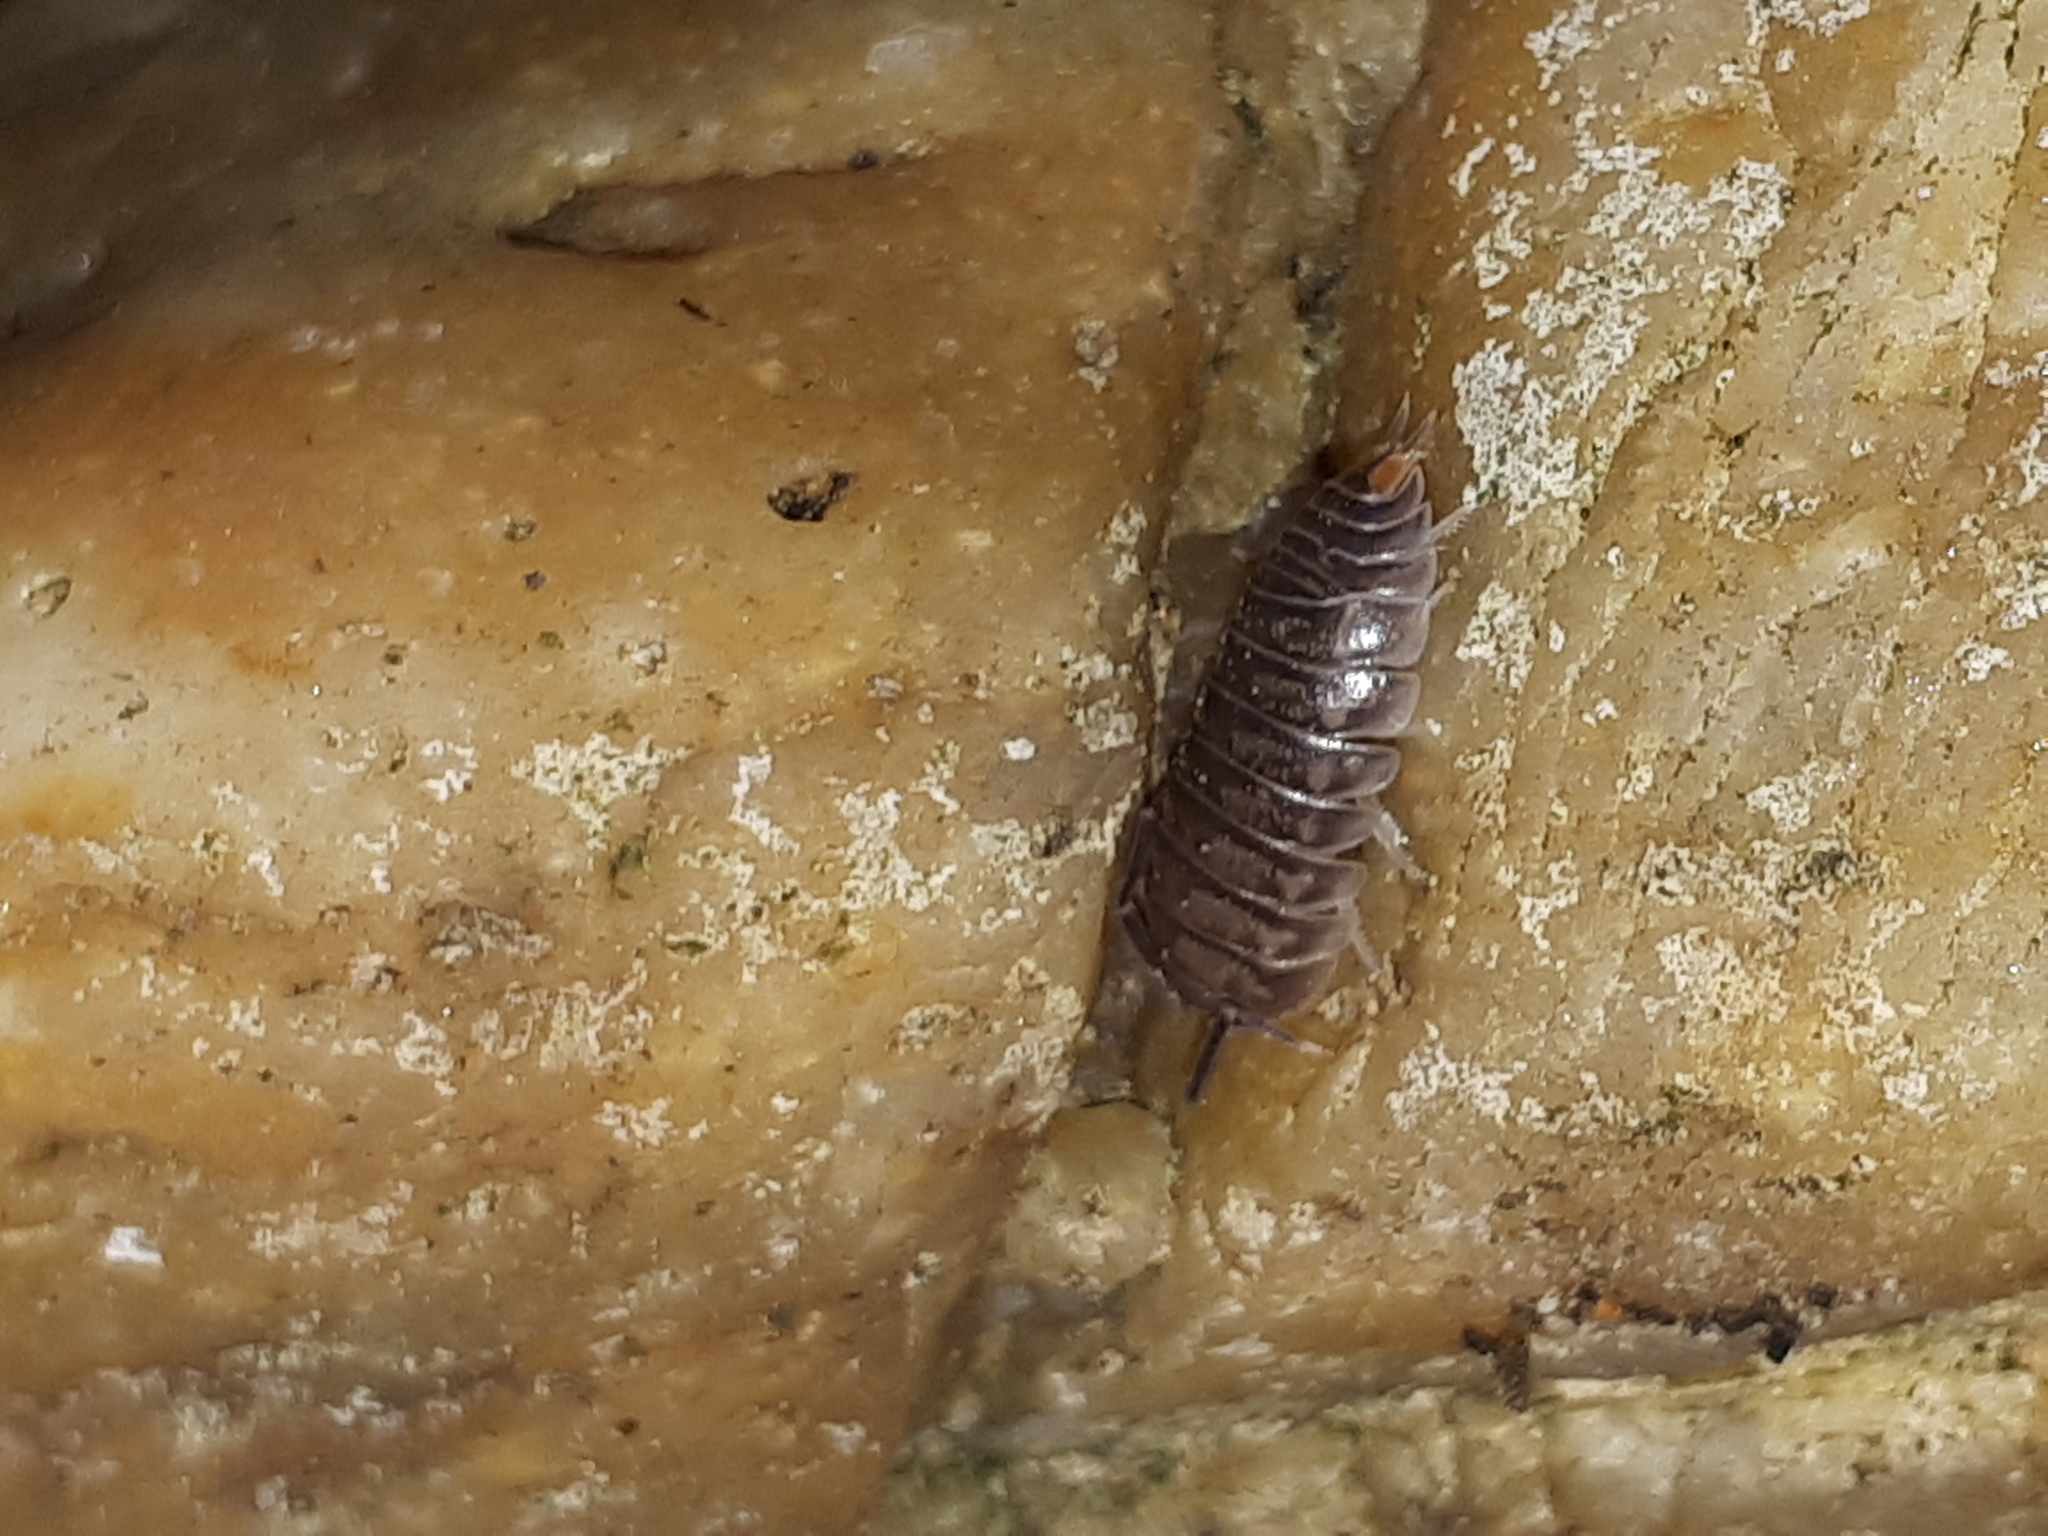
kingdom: Animalia
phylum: Arthropoda
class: Malacostraca
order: Isopoda
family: Cylisticidae
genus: Cylisticus
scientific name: Cylisticus convexus
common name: Curly woodlouse
